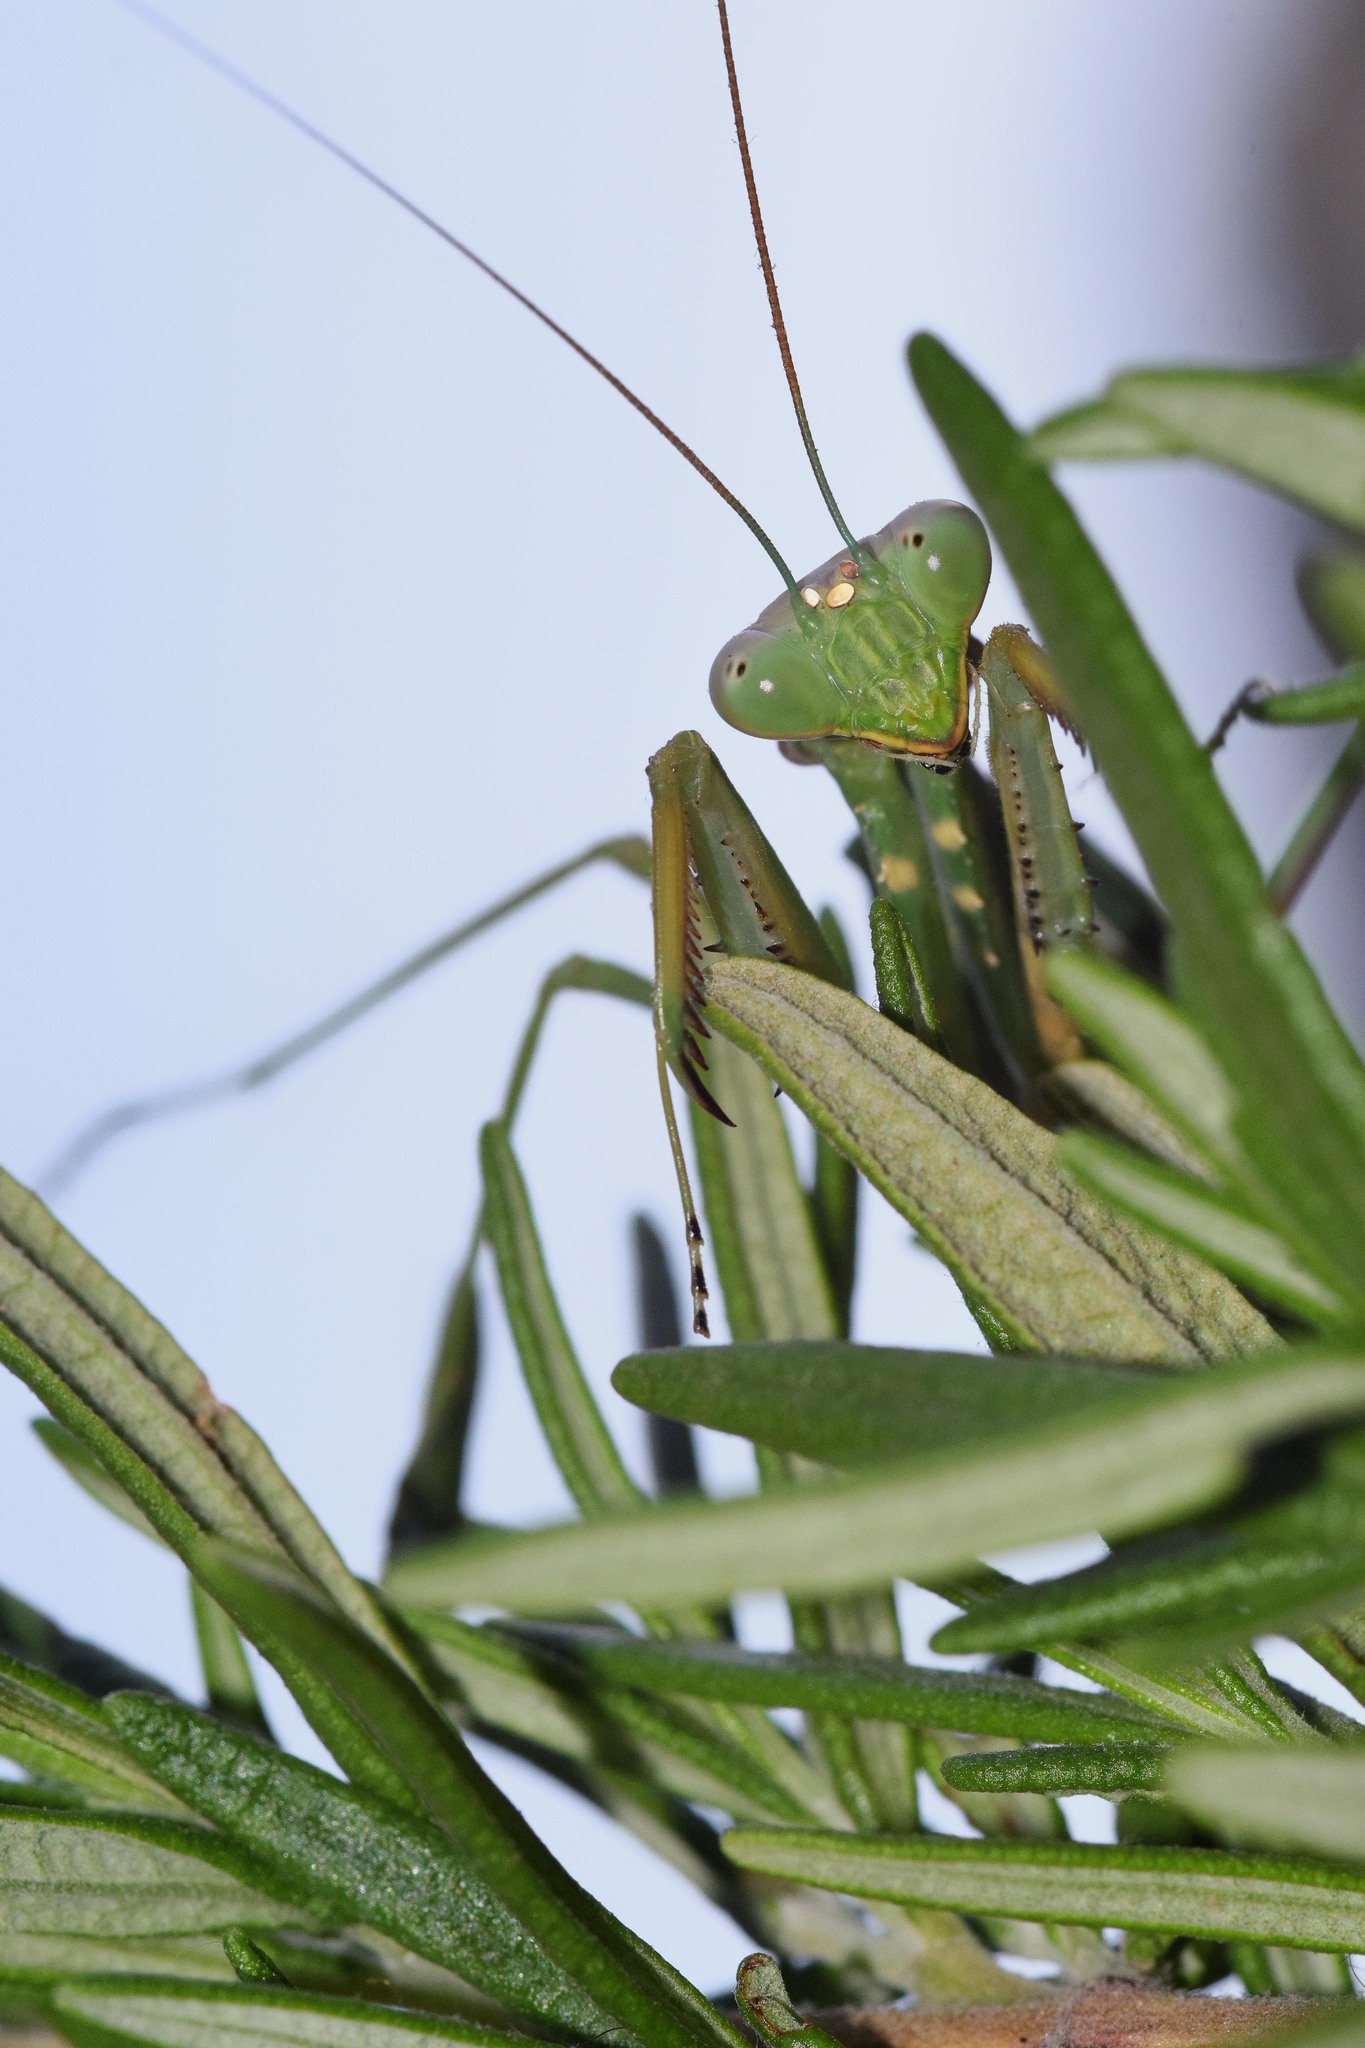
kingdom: Animalia
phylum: Arthropoda
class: Insecta
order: Mantodea
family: Mantidae
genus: Sphodromantis
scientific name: Sphodromantis viridis
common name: Giant african mantis
